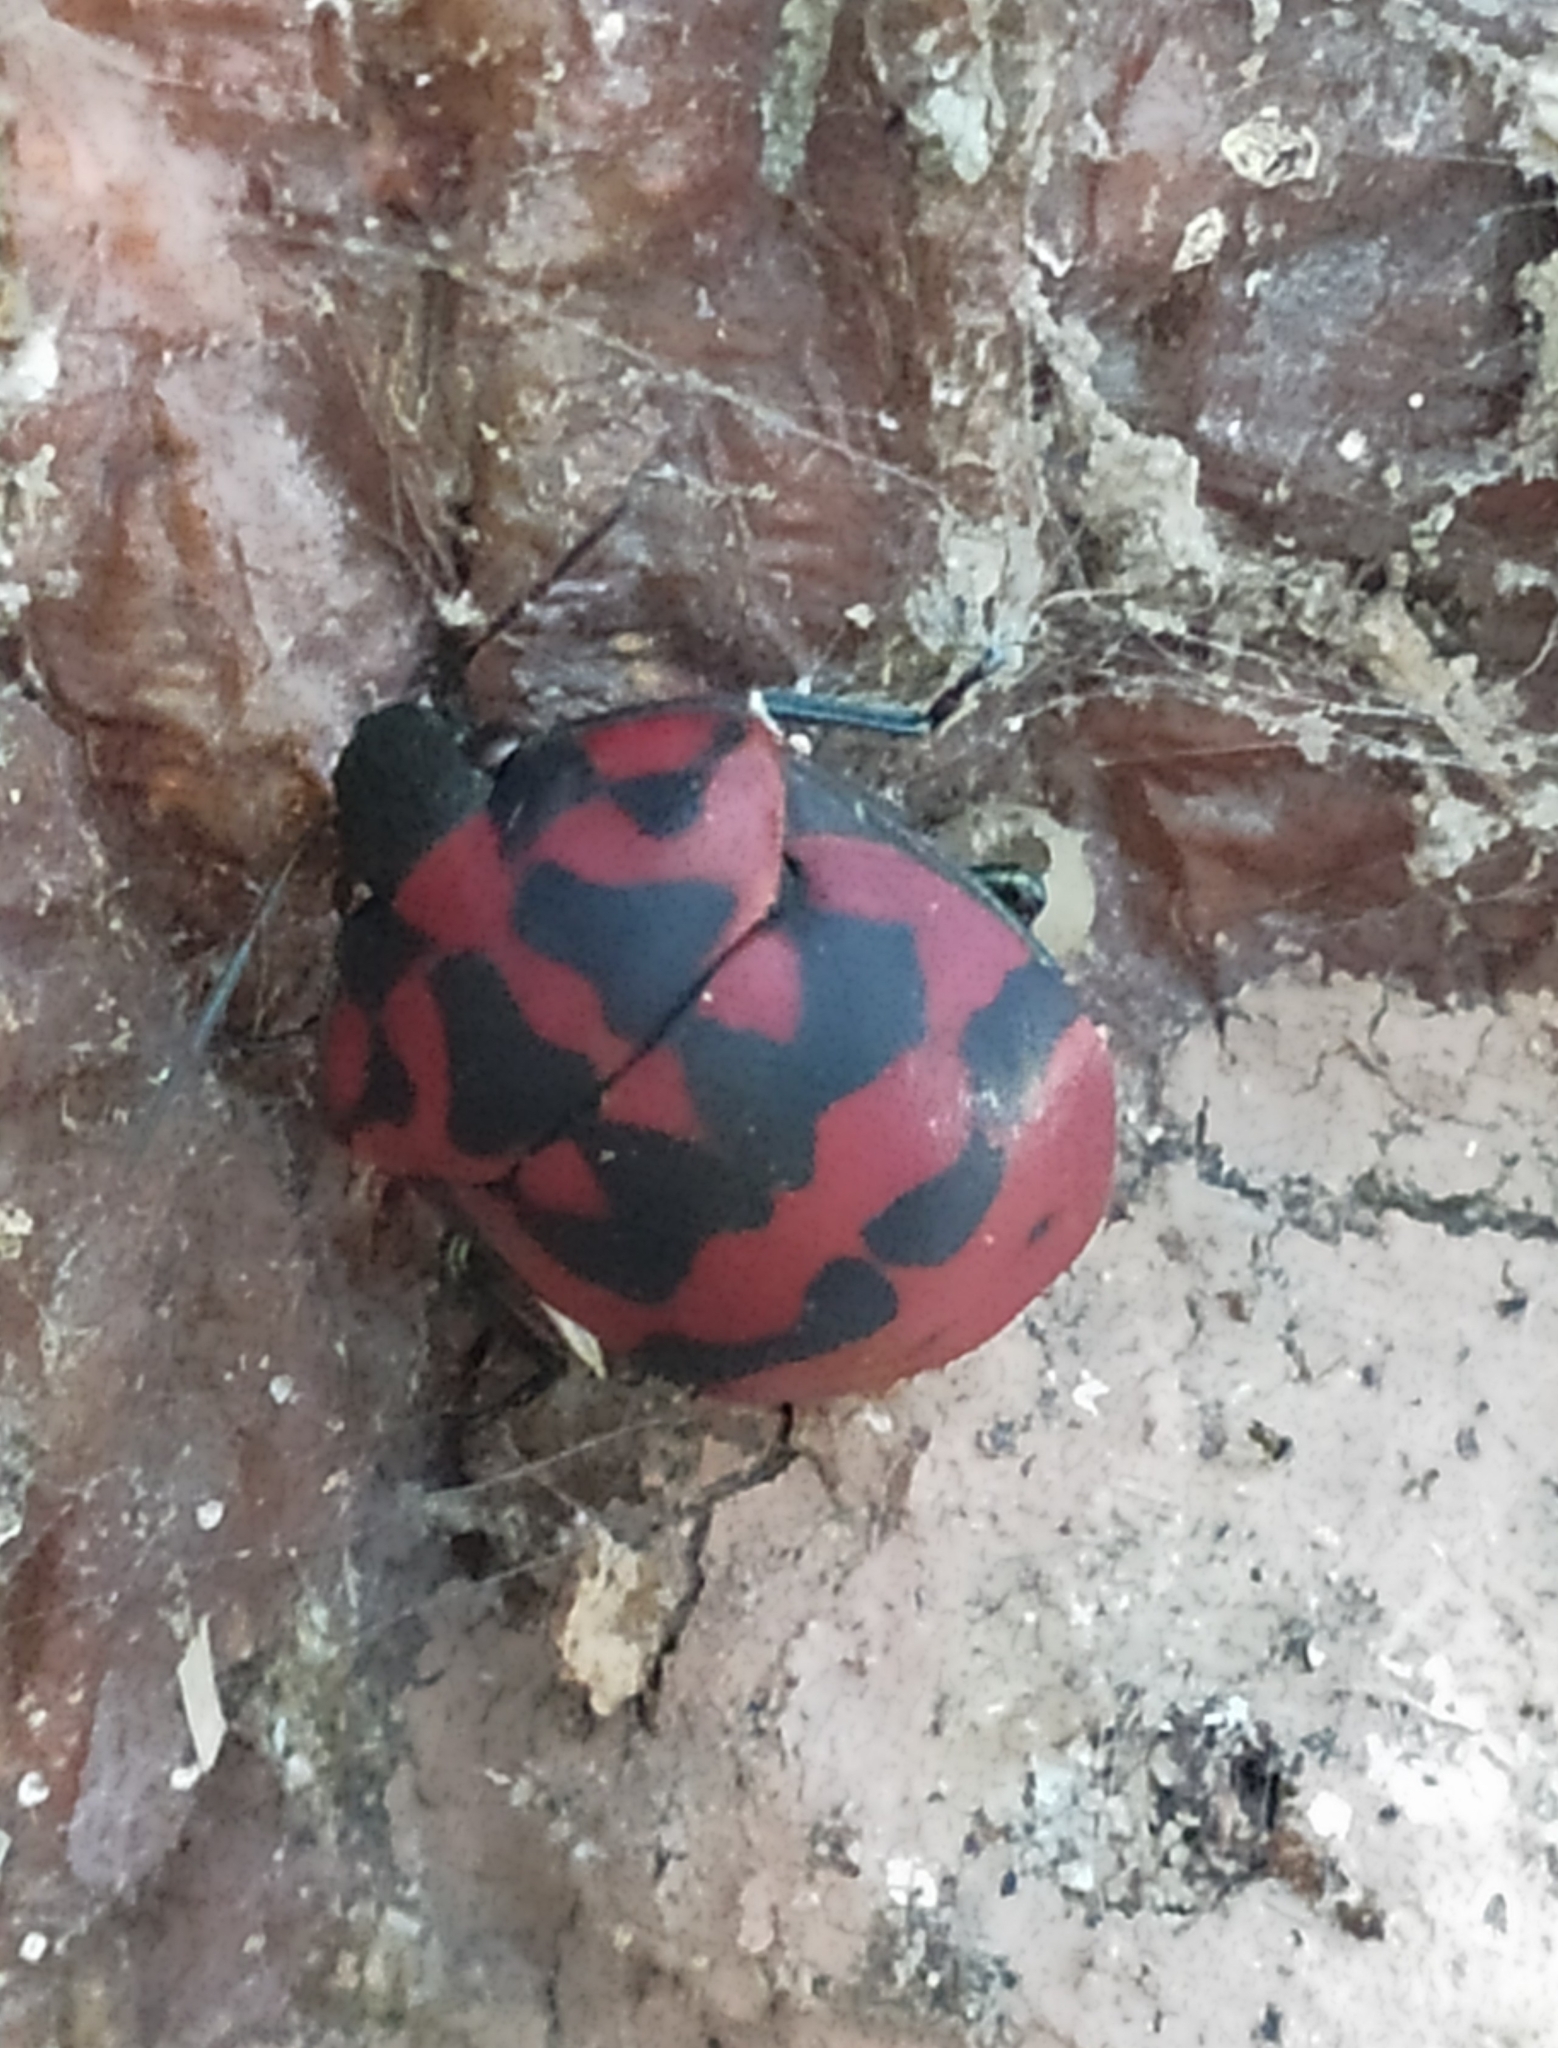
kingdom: Animalia
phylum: Arthropoda
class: Insecta
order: Hemiptera
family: Scutelleridae
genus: Pachycoris
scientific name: Pachycoris torridus
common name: Torrid jewel bug
